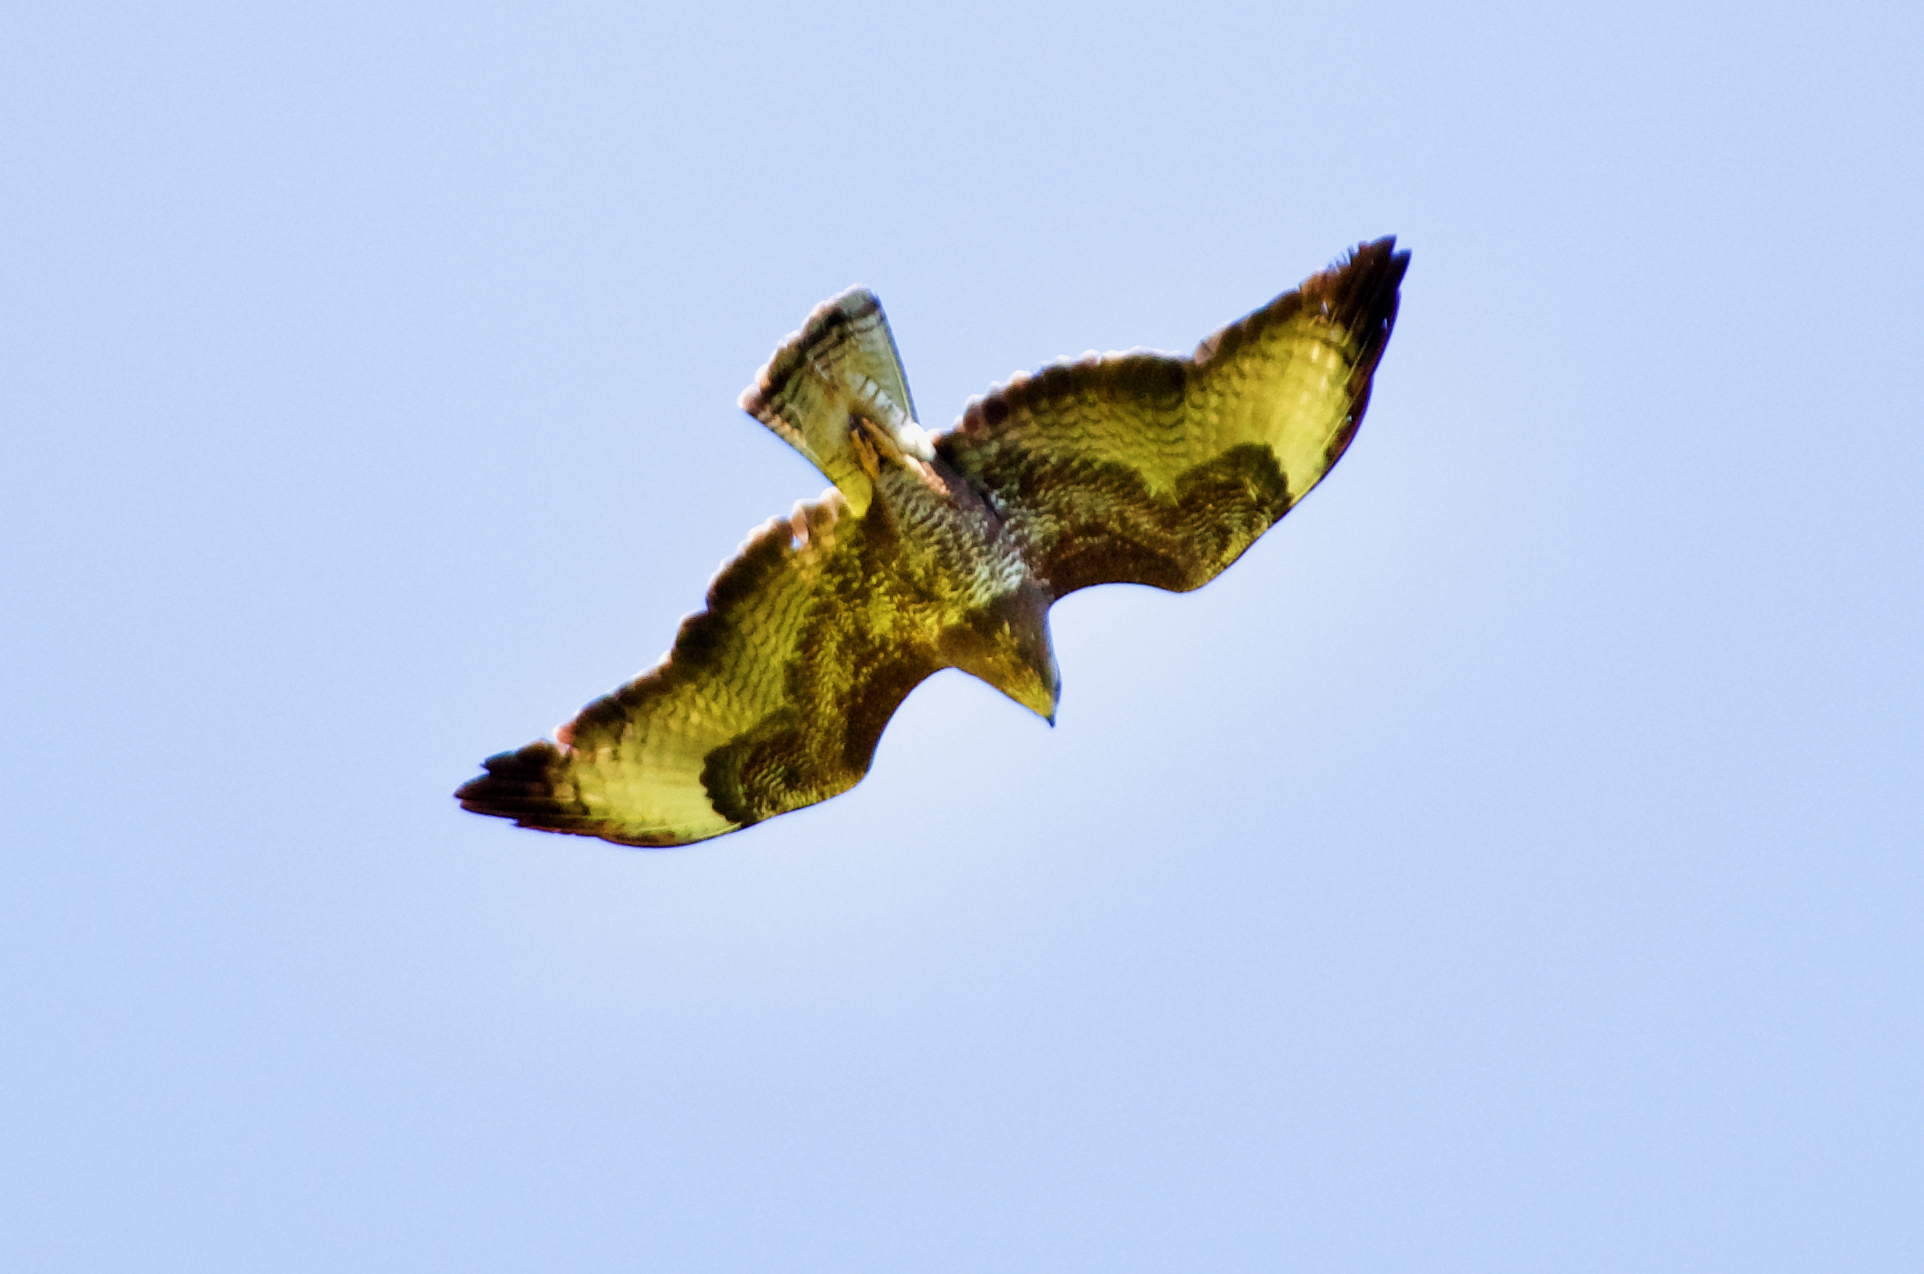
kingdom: Animalia
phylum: Chordata
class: Aves
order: Accipitriformes
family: Accipitridae
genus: Buteo
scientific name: Buteo buteo
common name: Common buzzard
